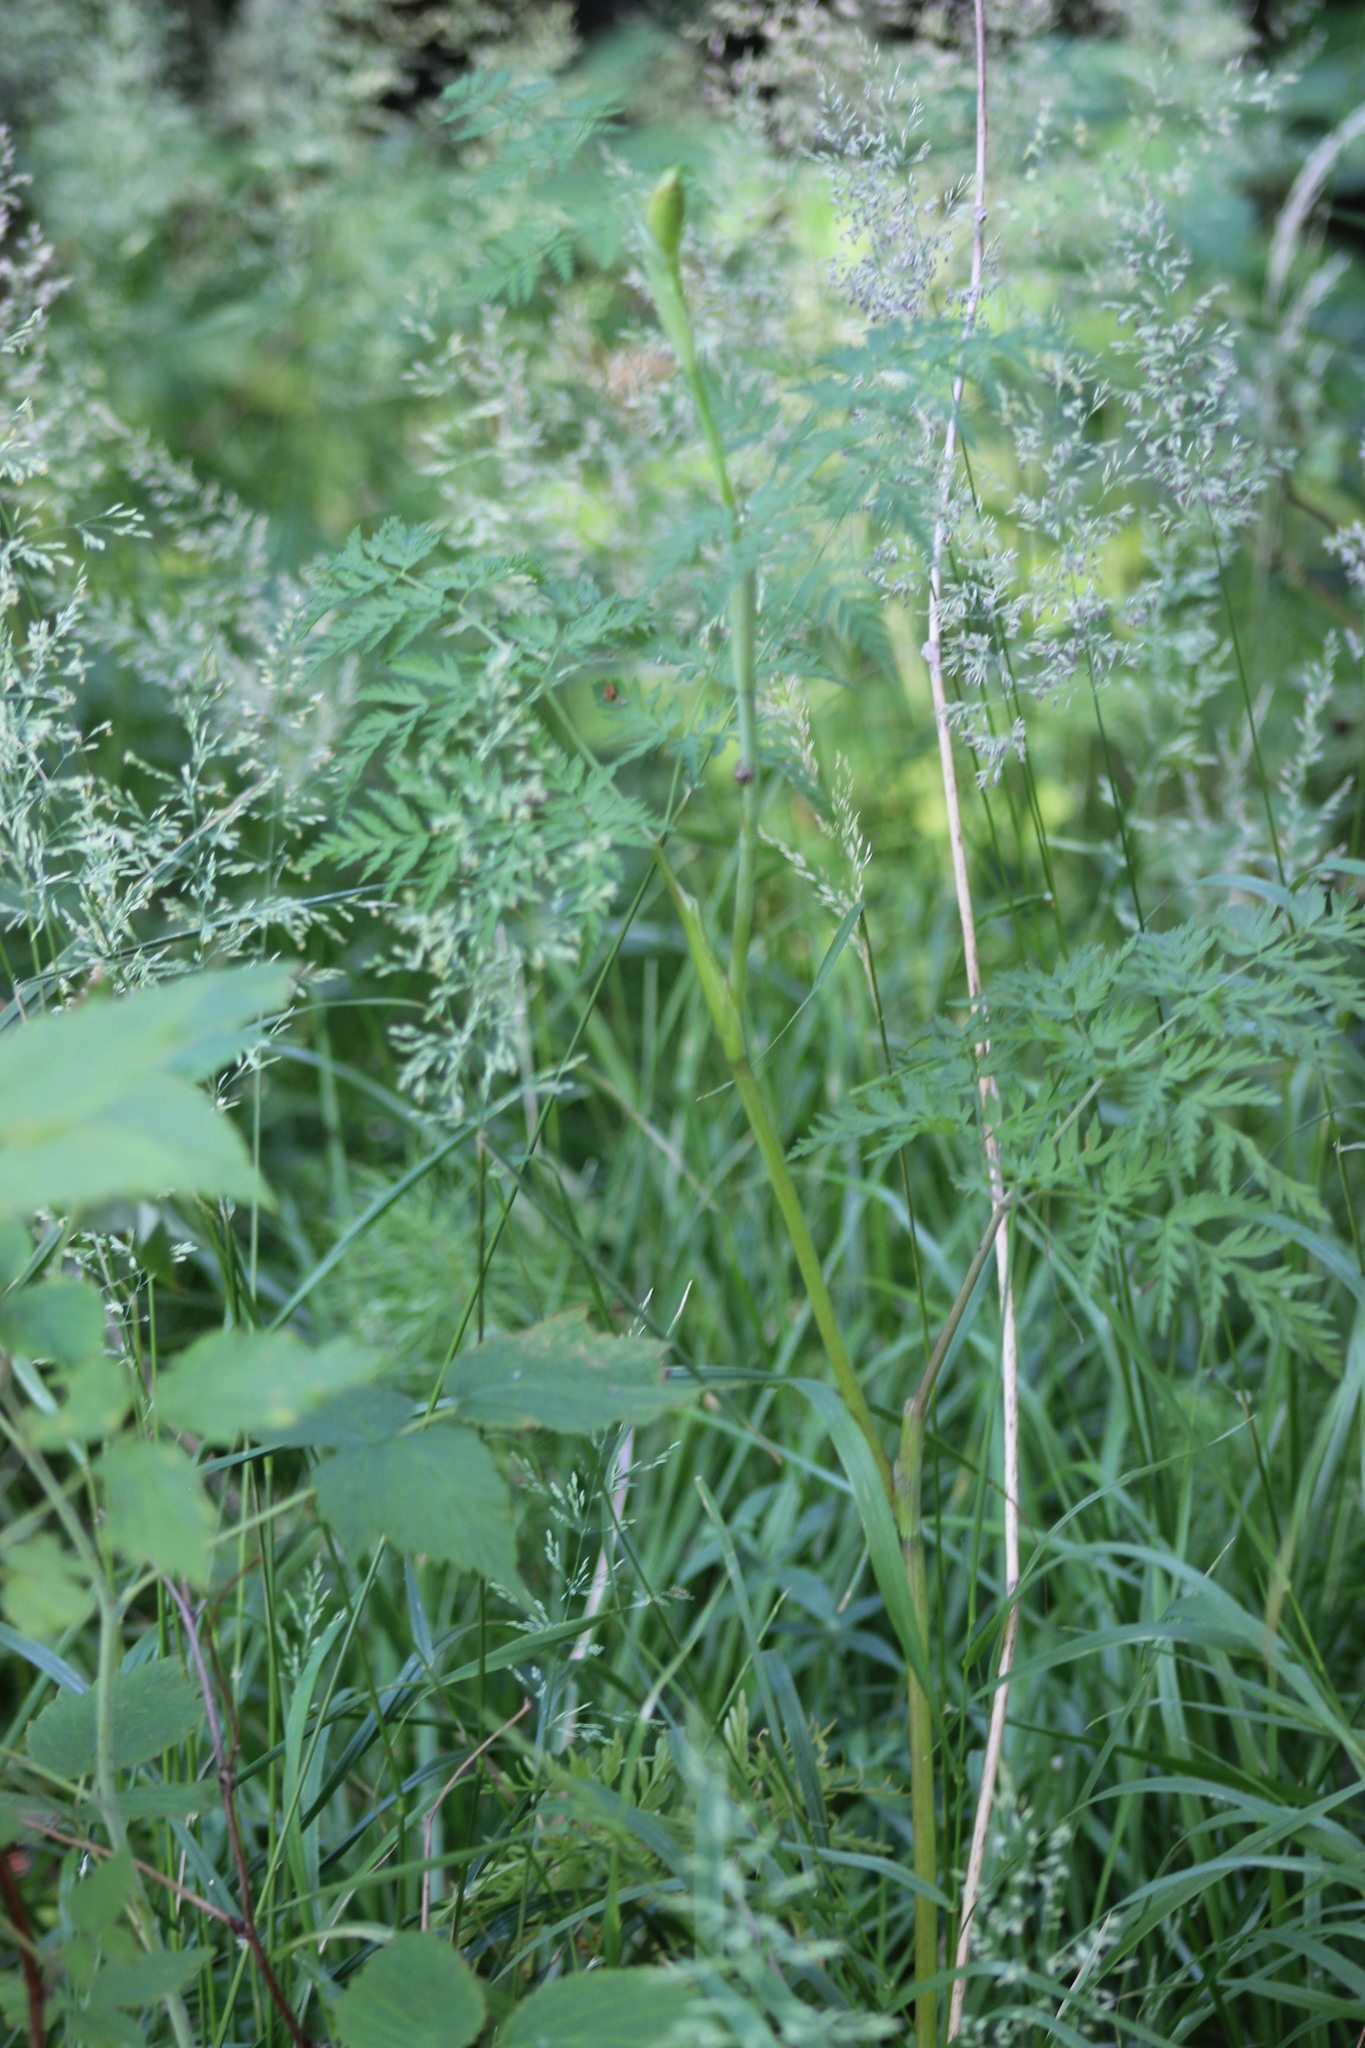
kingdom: Plantae
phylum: Tracheophyta
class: Magnoliopsida
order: Apiales
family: Apiaceae
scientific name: Apiaceae
